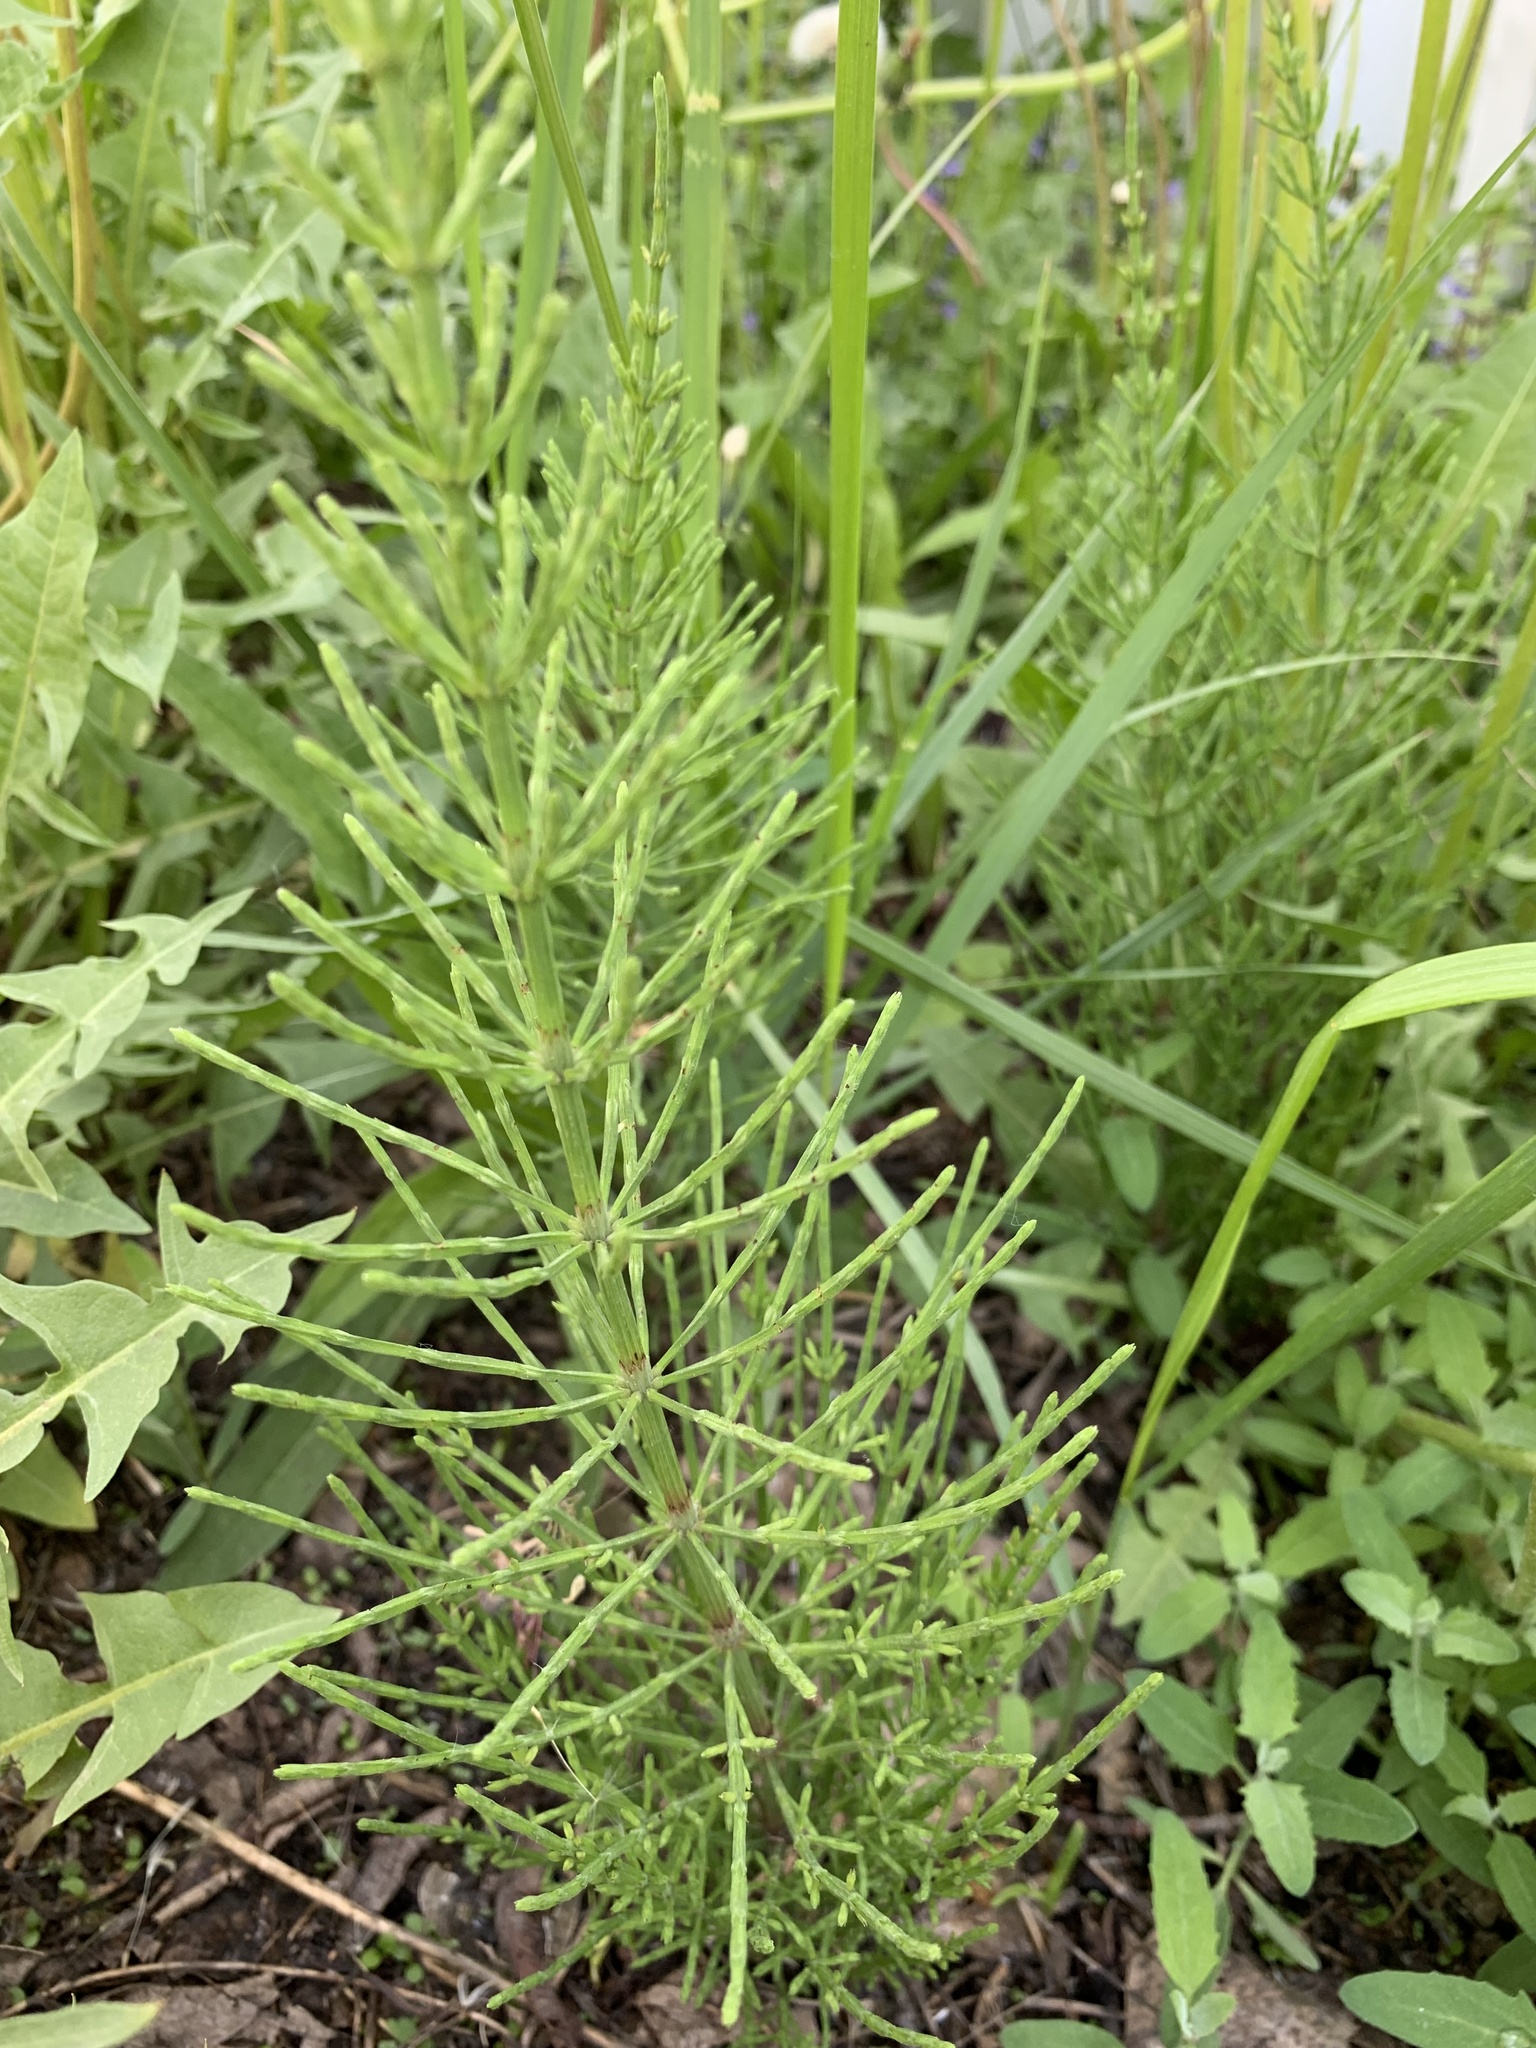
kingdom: Plantae
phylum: Tracheophyta
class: Polypodiopsida
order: Equisetales
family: Equisetaceae
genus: Equisetum
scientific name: Equisetum arvense
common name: Field horsetail
